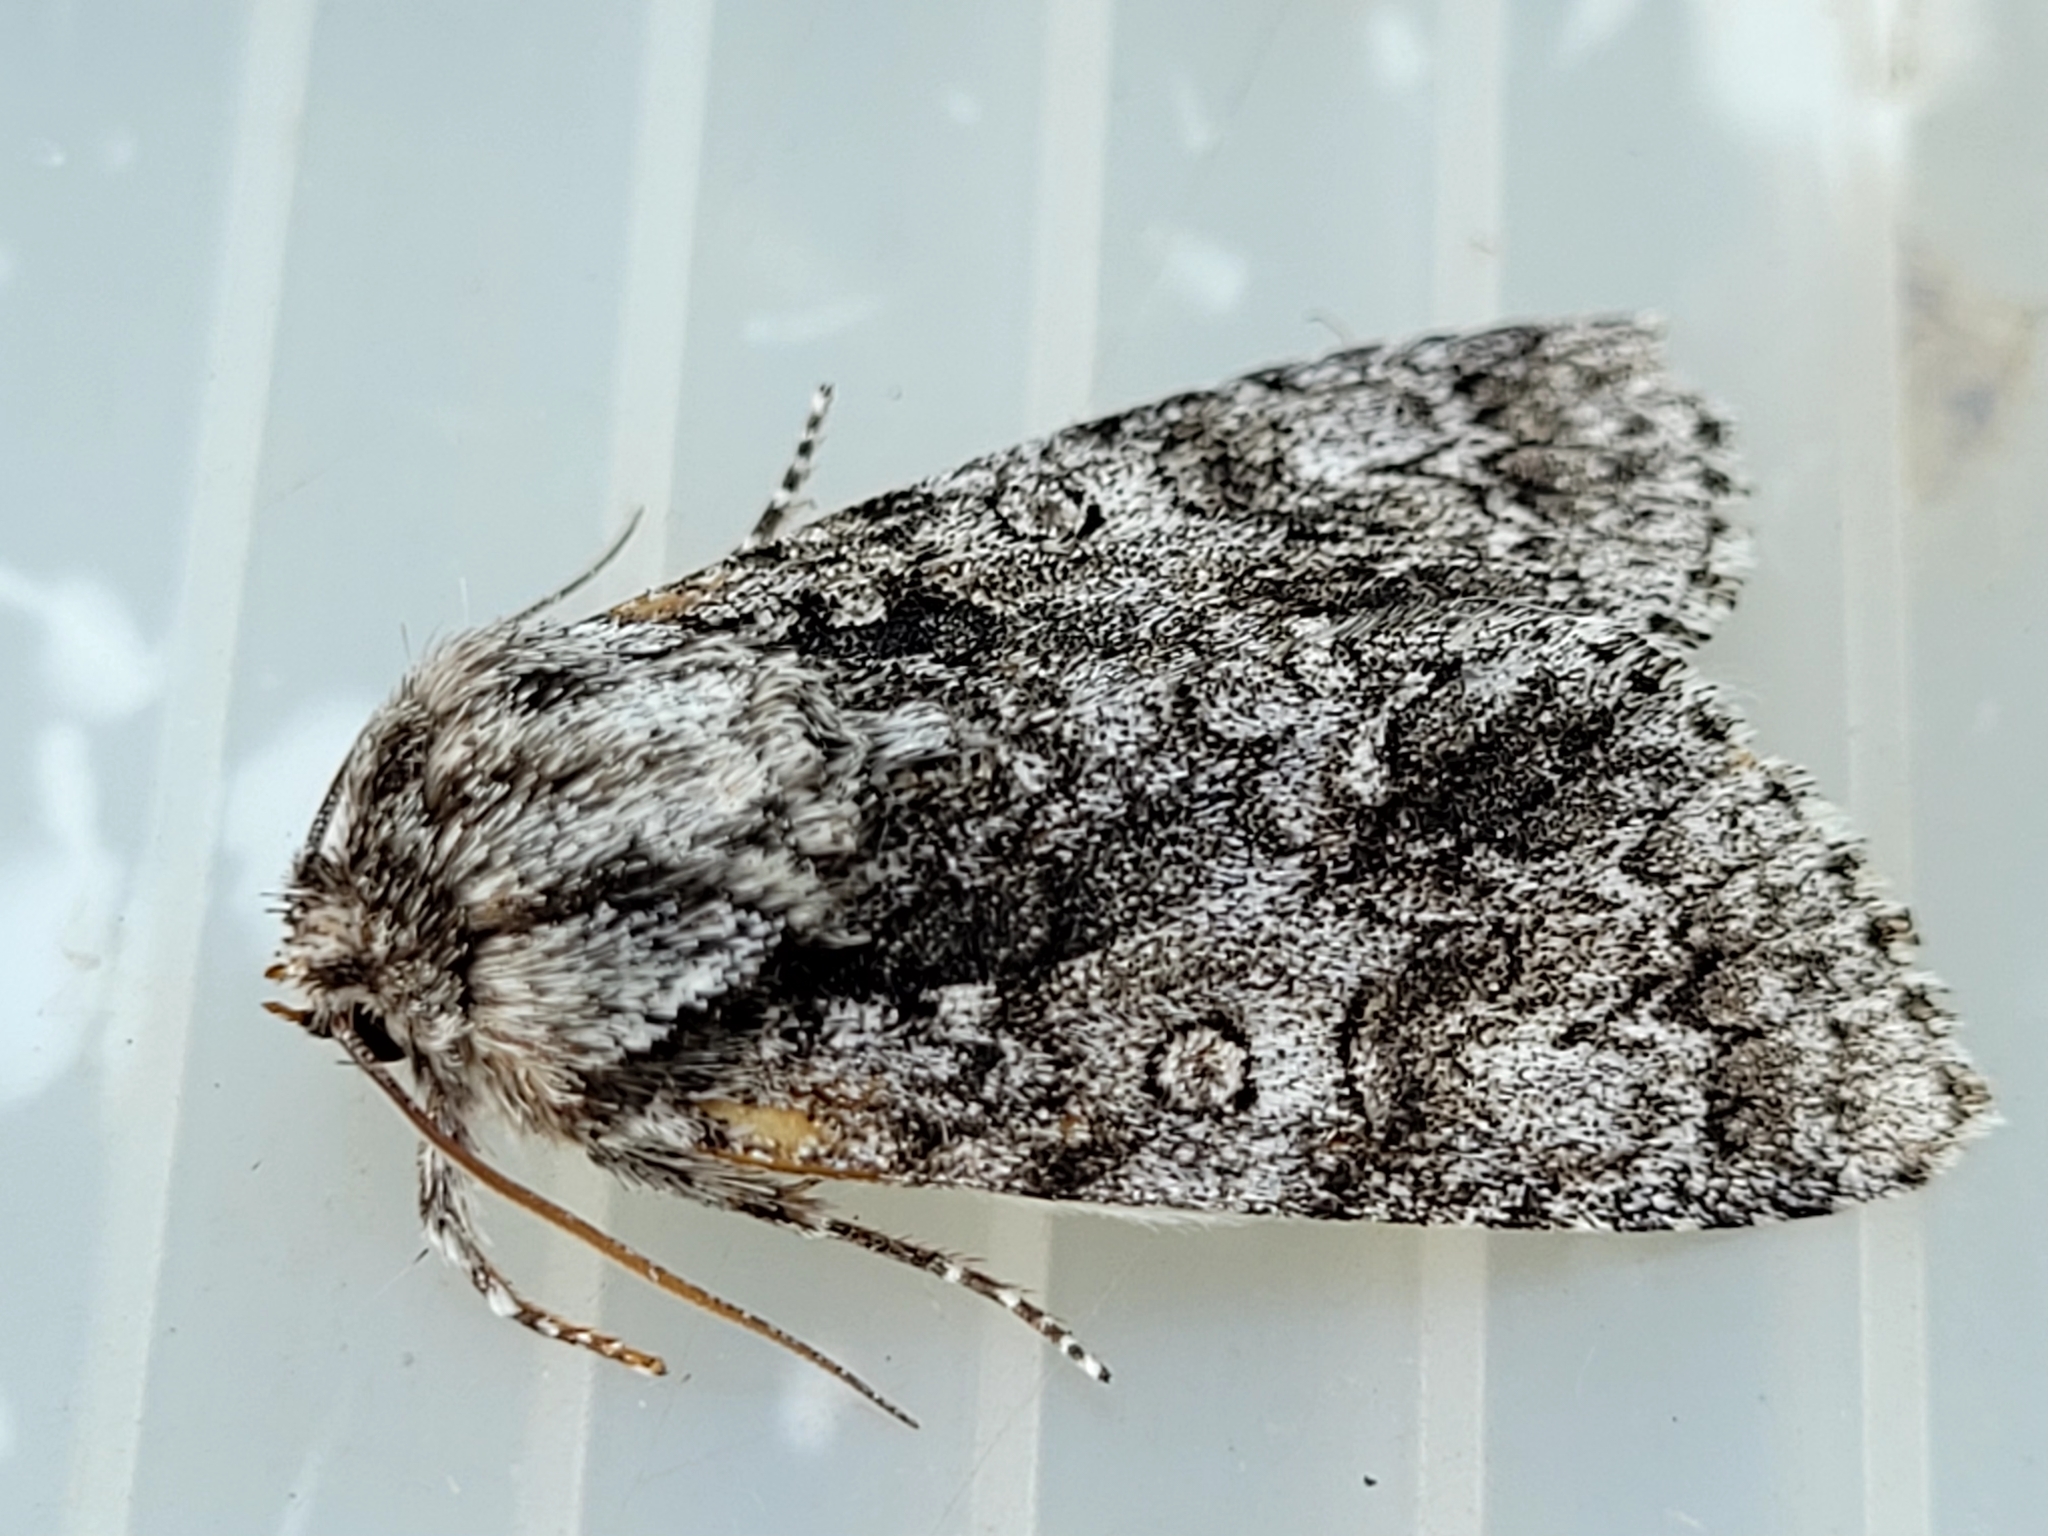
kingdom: Animalia
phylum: Arthropoda
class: Insecta
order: Lepidoptera
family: Noctuidae
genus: Acronicta
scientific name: Acronicta impressa
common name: Impressed dagger
